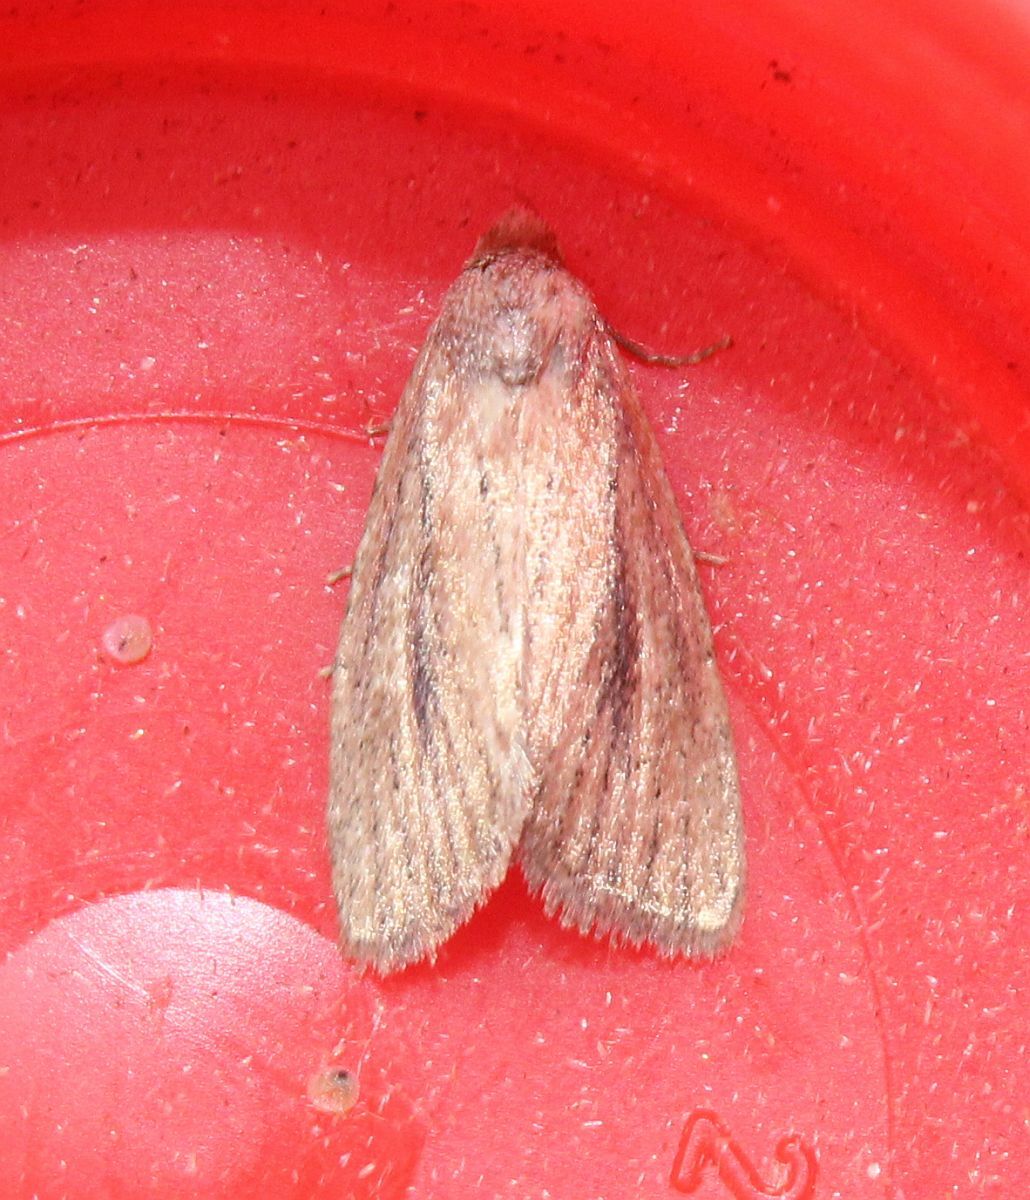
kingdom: Animalia
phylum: Arthropoda
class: Insecta
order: Lepidoptera
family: Noctuidae
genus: Coenobia
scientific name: Coenobia rufa
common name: Small rufous
